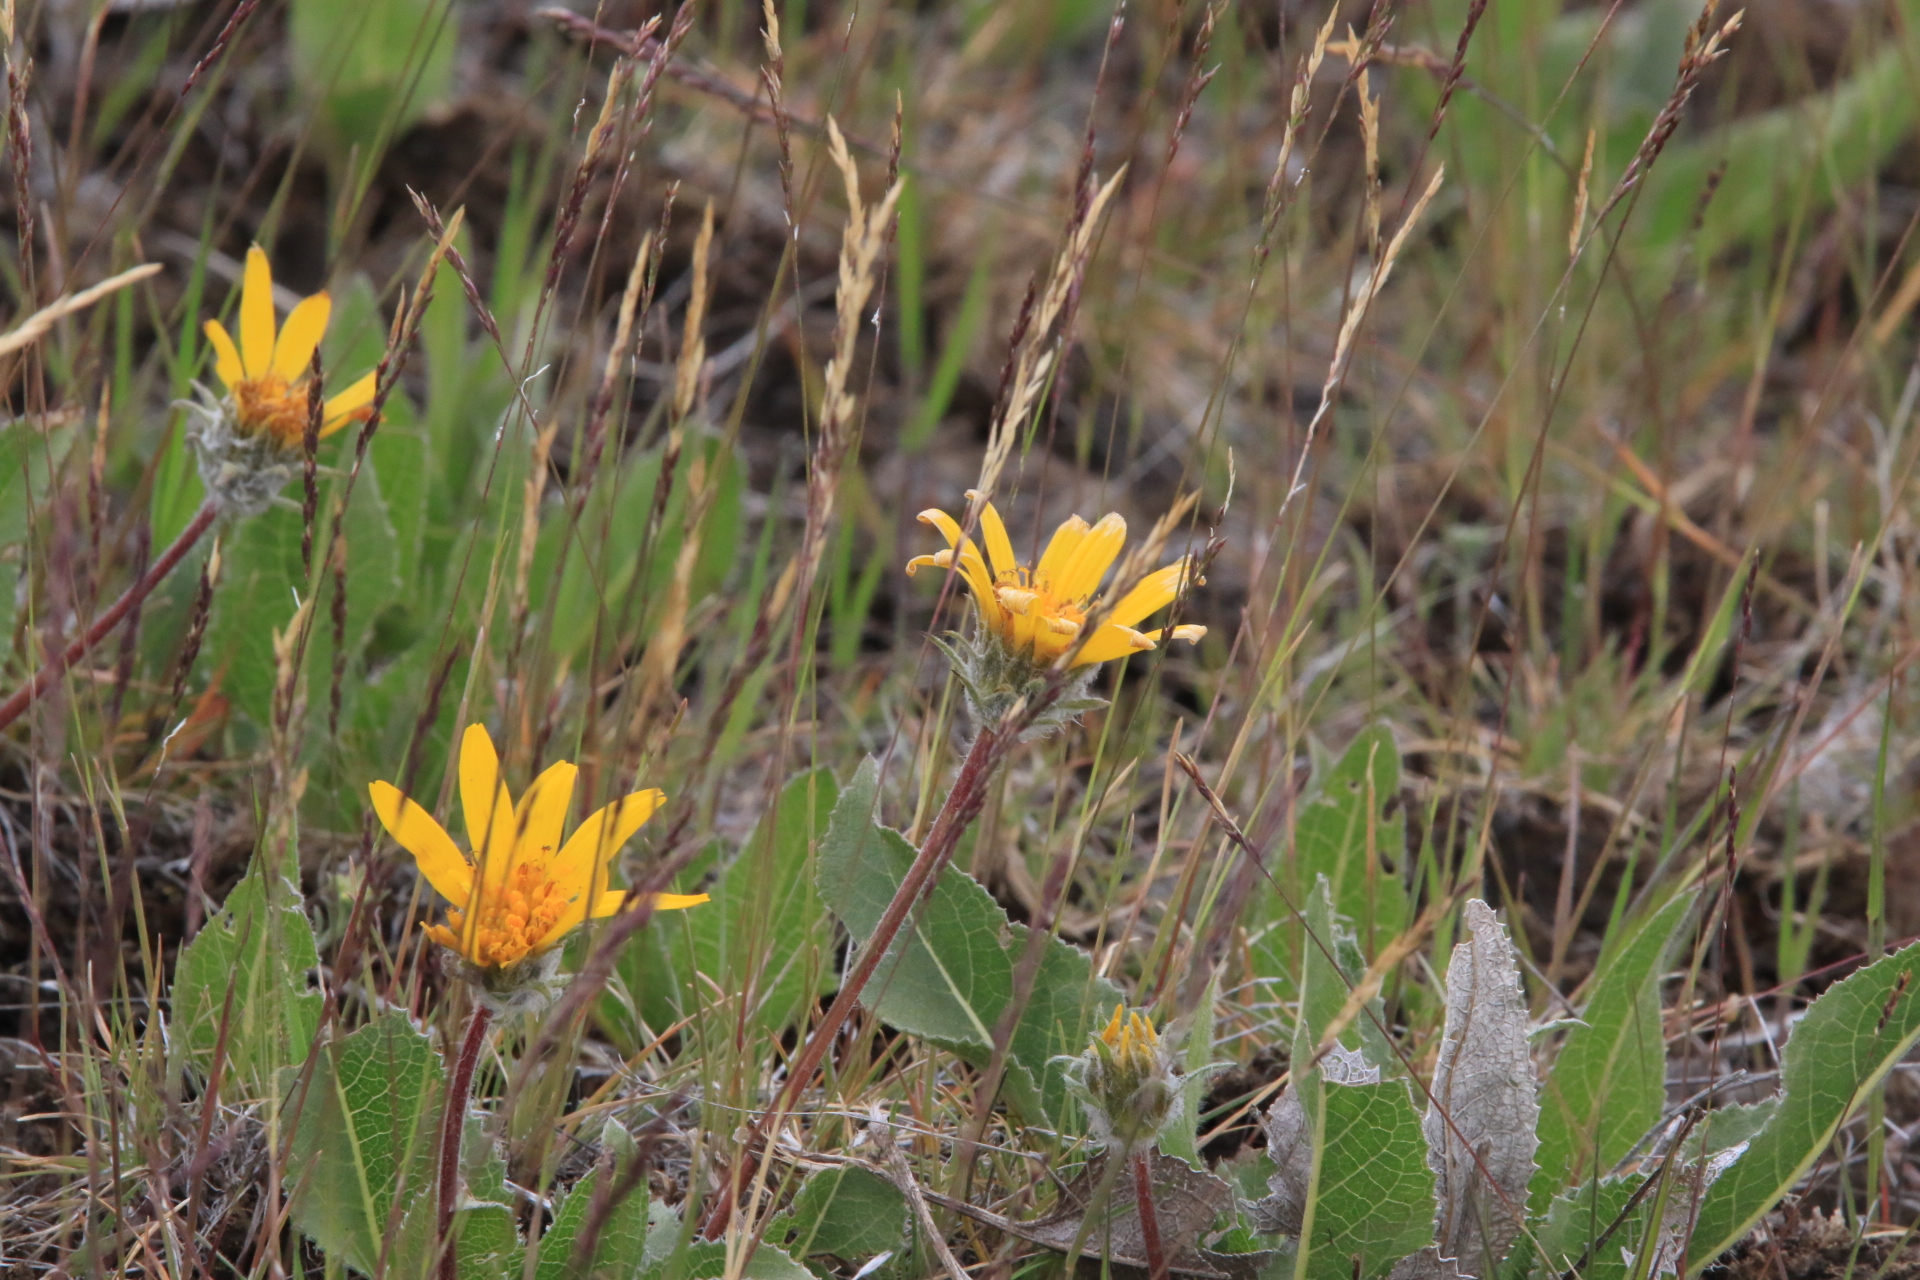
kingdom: Plantae
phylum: Tracheophyta
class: Magnoliopsida
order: Asterales
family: Asteraceae
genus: Balsamorhiza
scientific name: Balsamorhiza serrata
